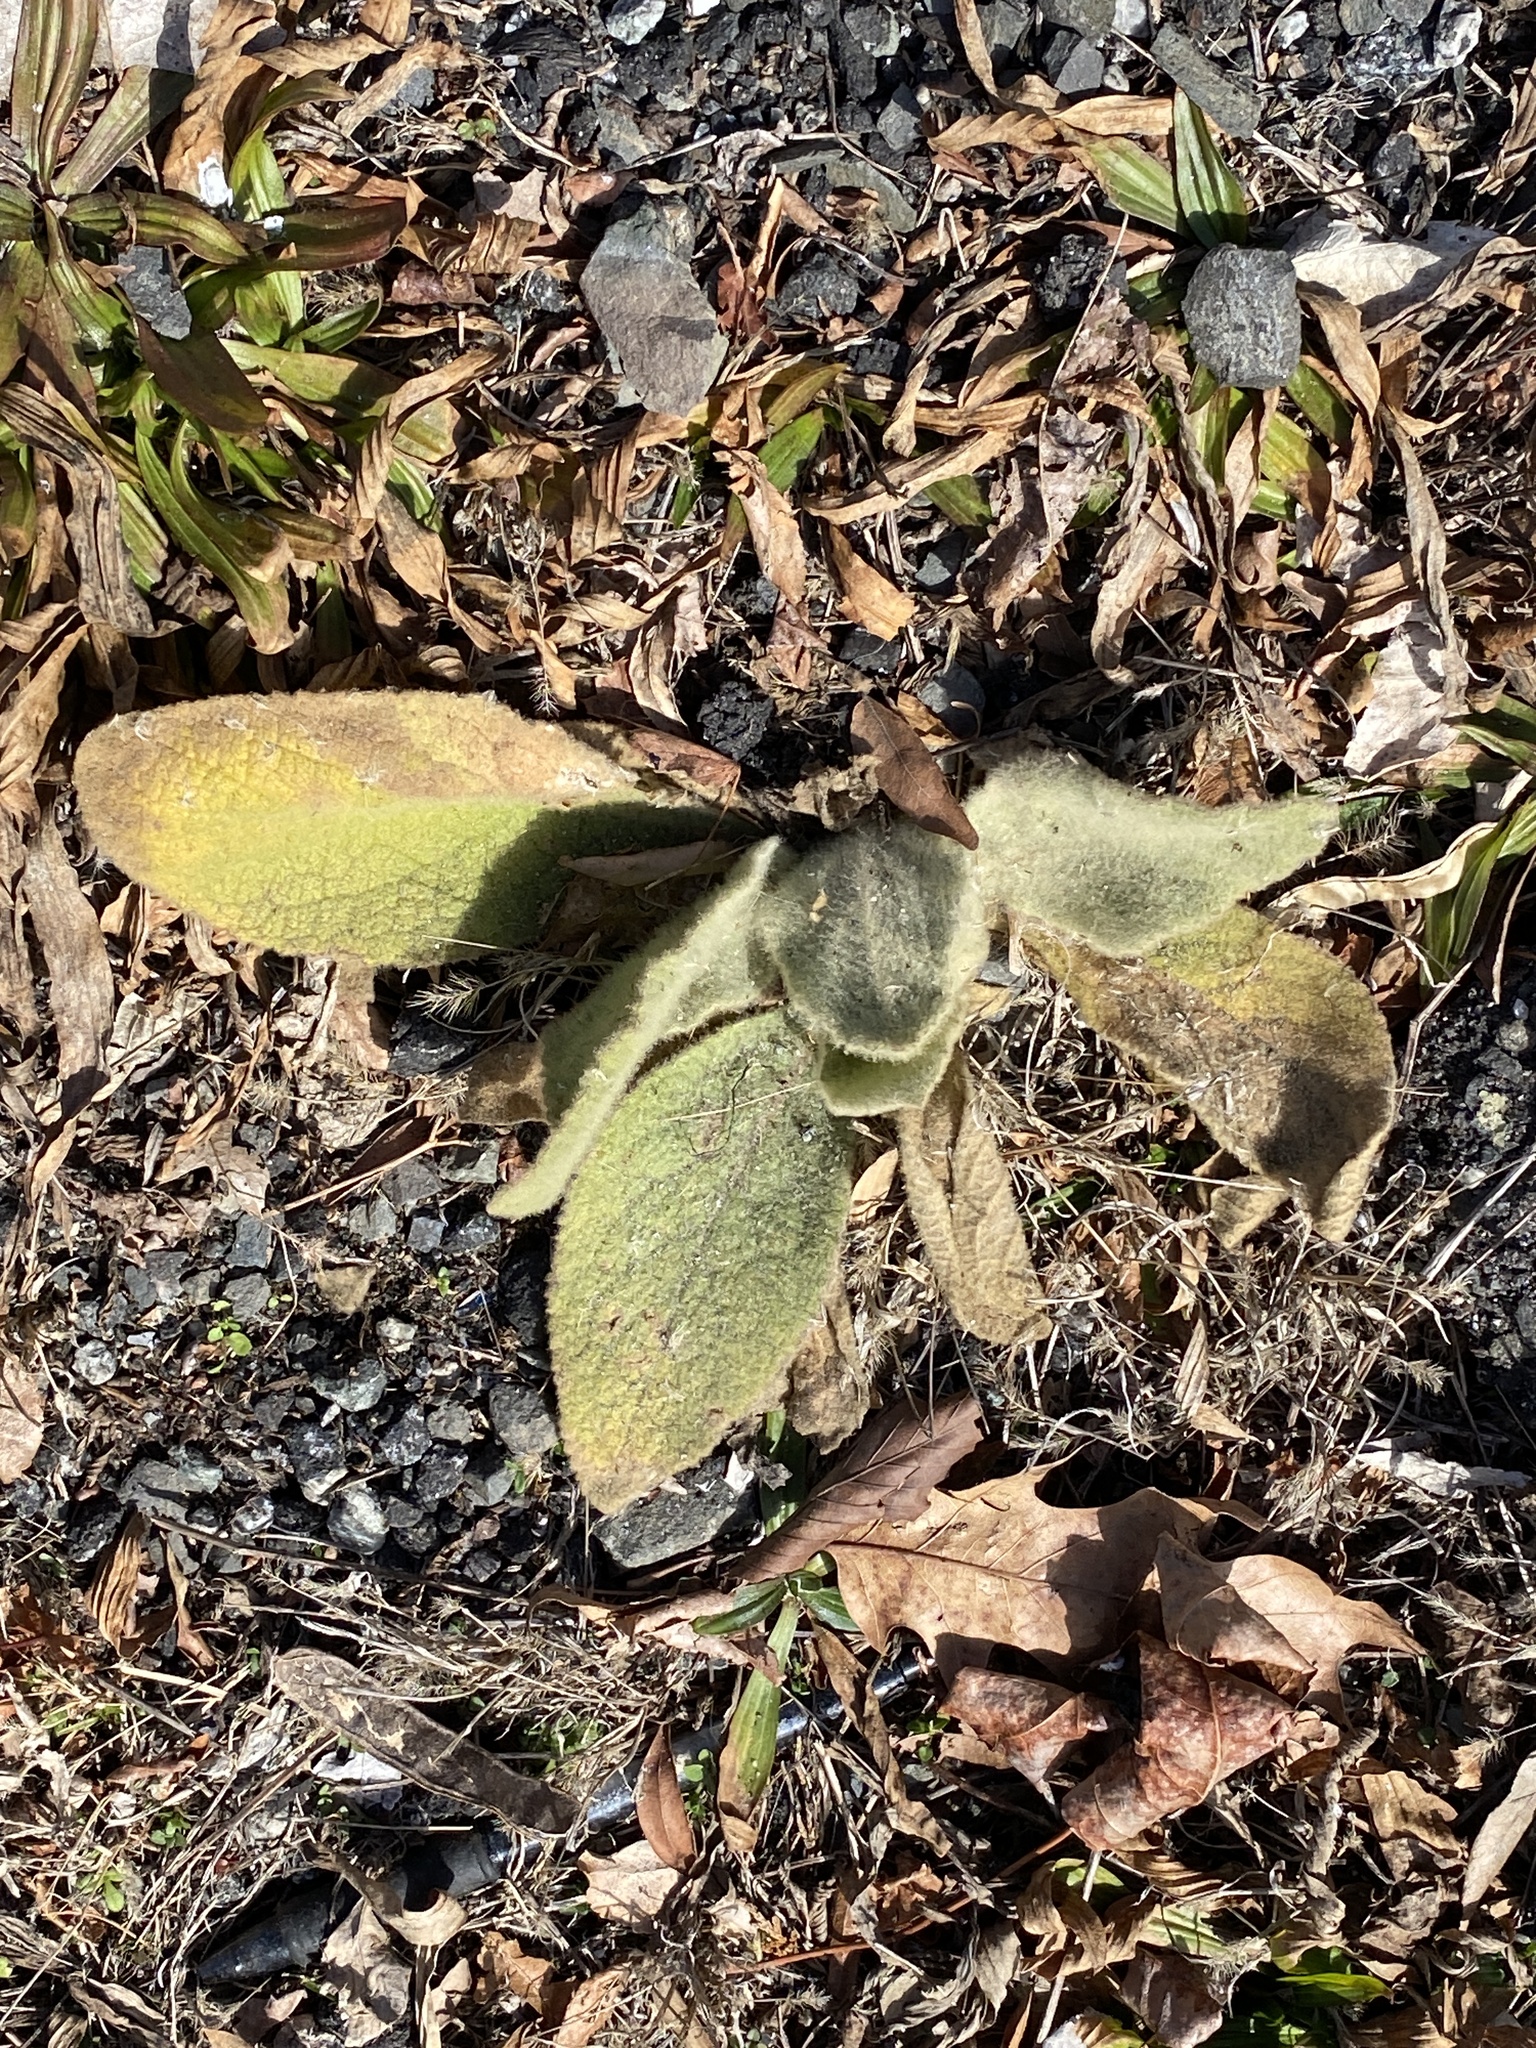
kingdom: Plantae
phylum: Tracheophyta
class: Magnoliopsida
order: Lamiales
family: Scrophulariaceae
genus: Verbascum
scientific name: Verbascum thapsus
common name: Common mullein
